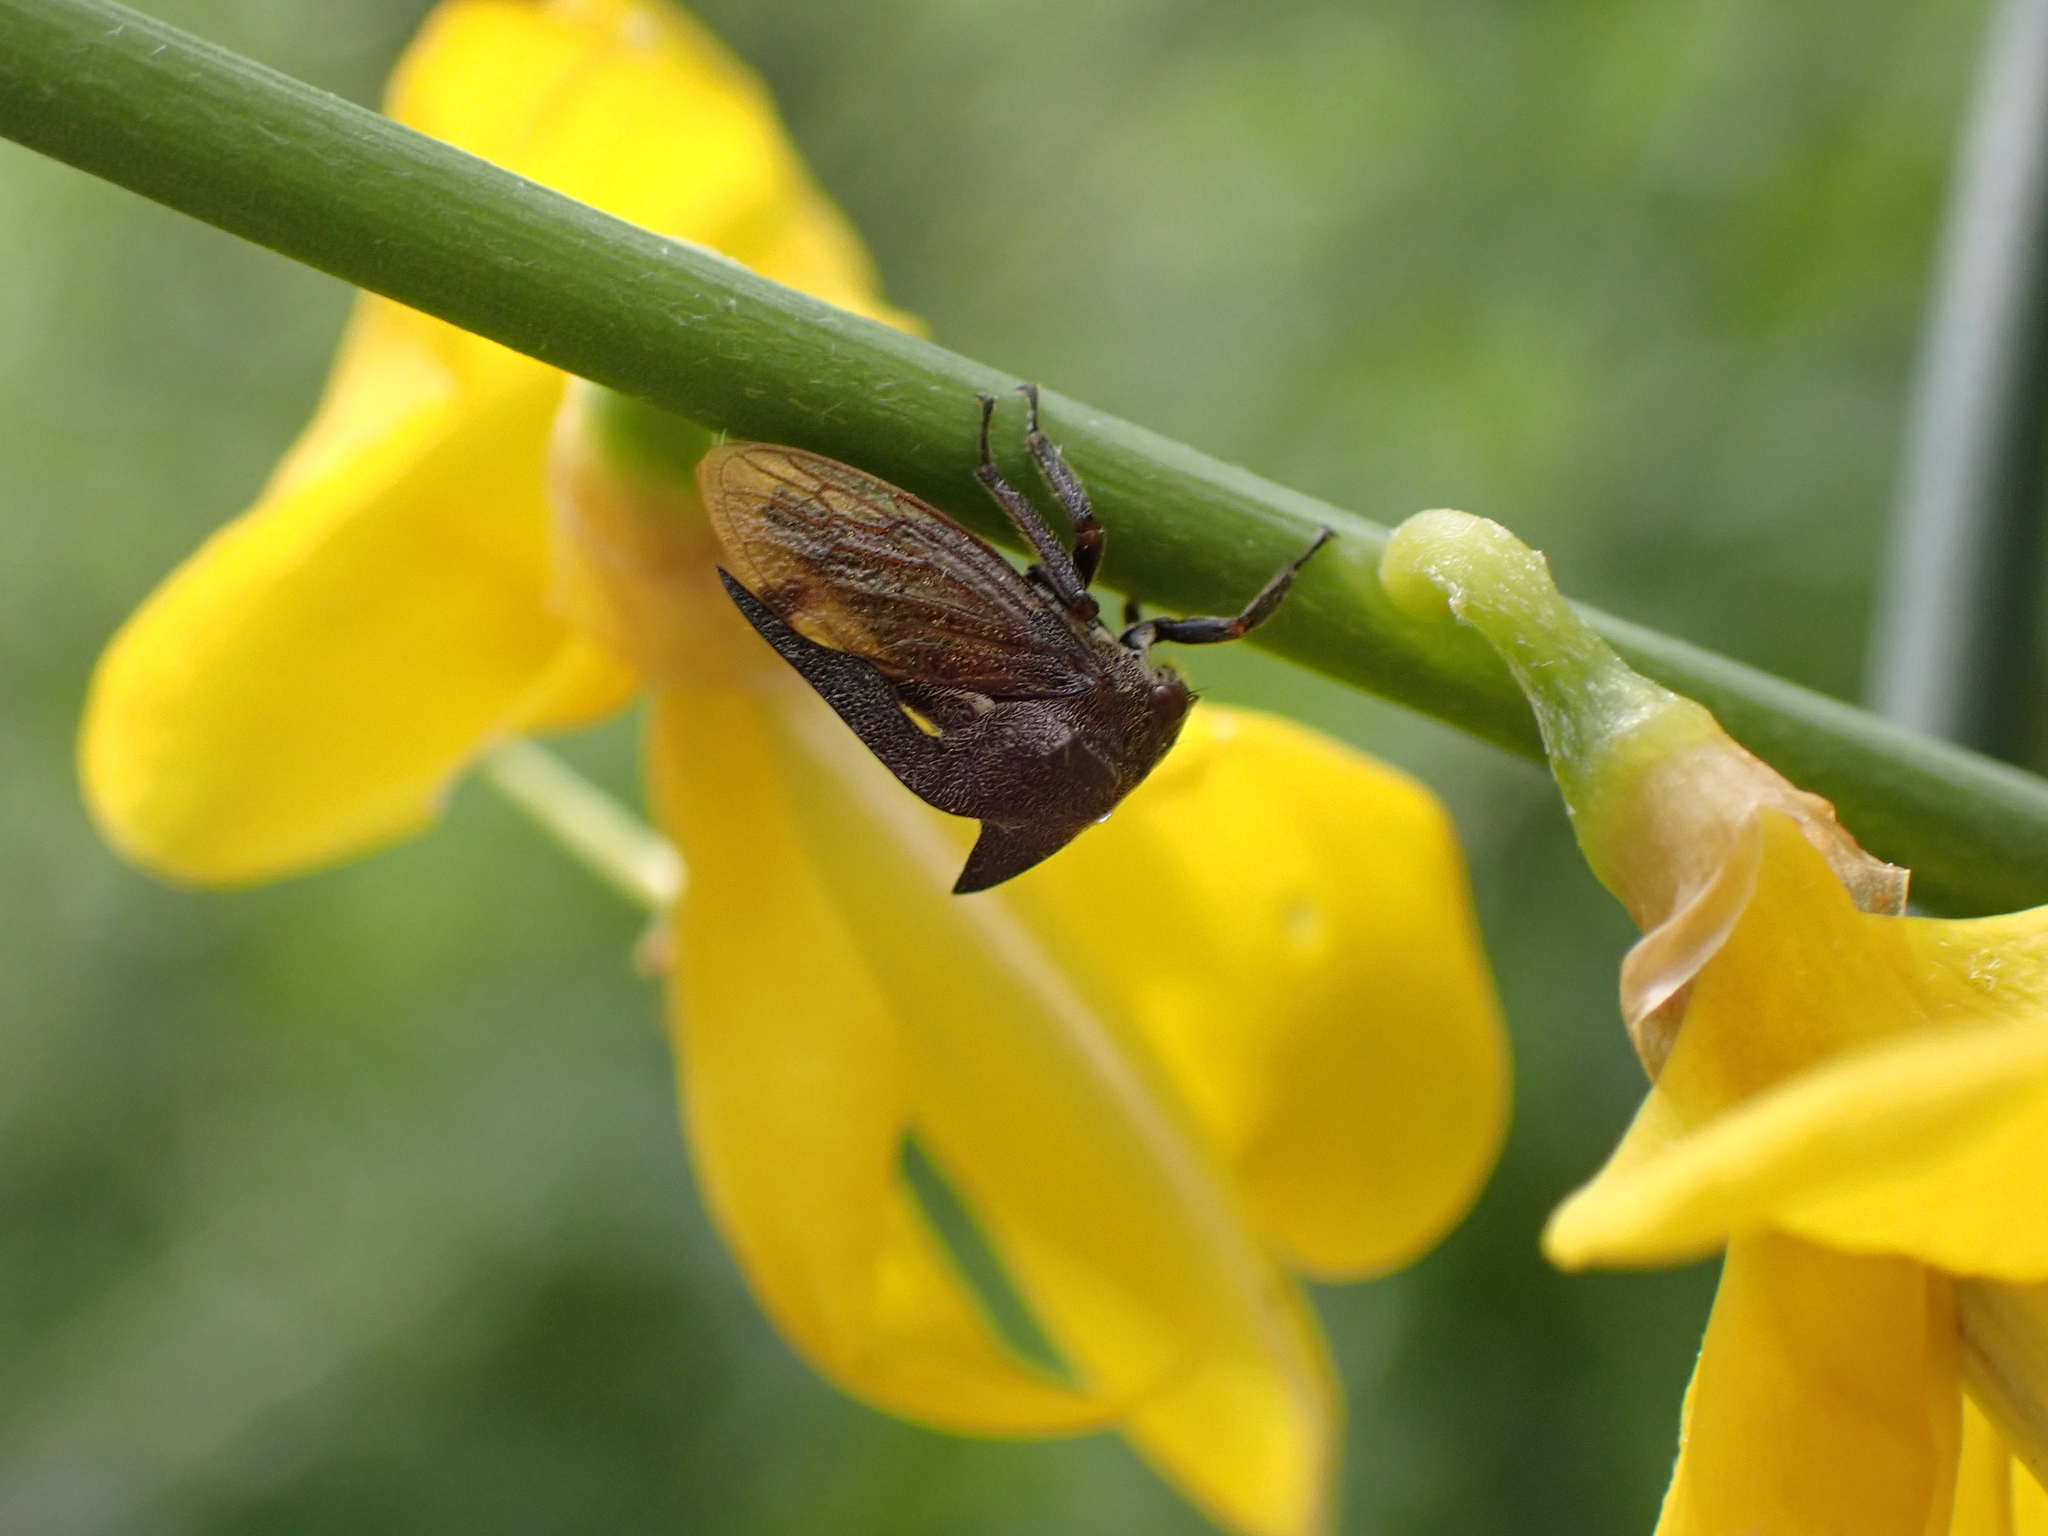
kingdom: Animalia
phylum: Arthropoda
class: Insecta
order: Hemiptera
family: Membracidae
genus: Centrotus
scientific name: Centrotus cornuta
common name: Treehopper
